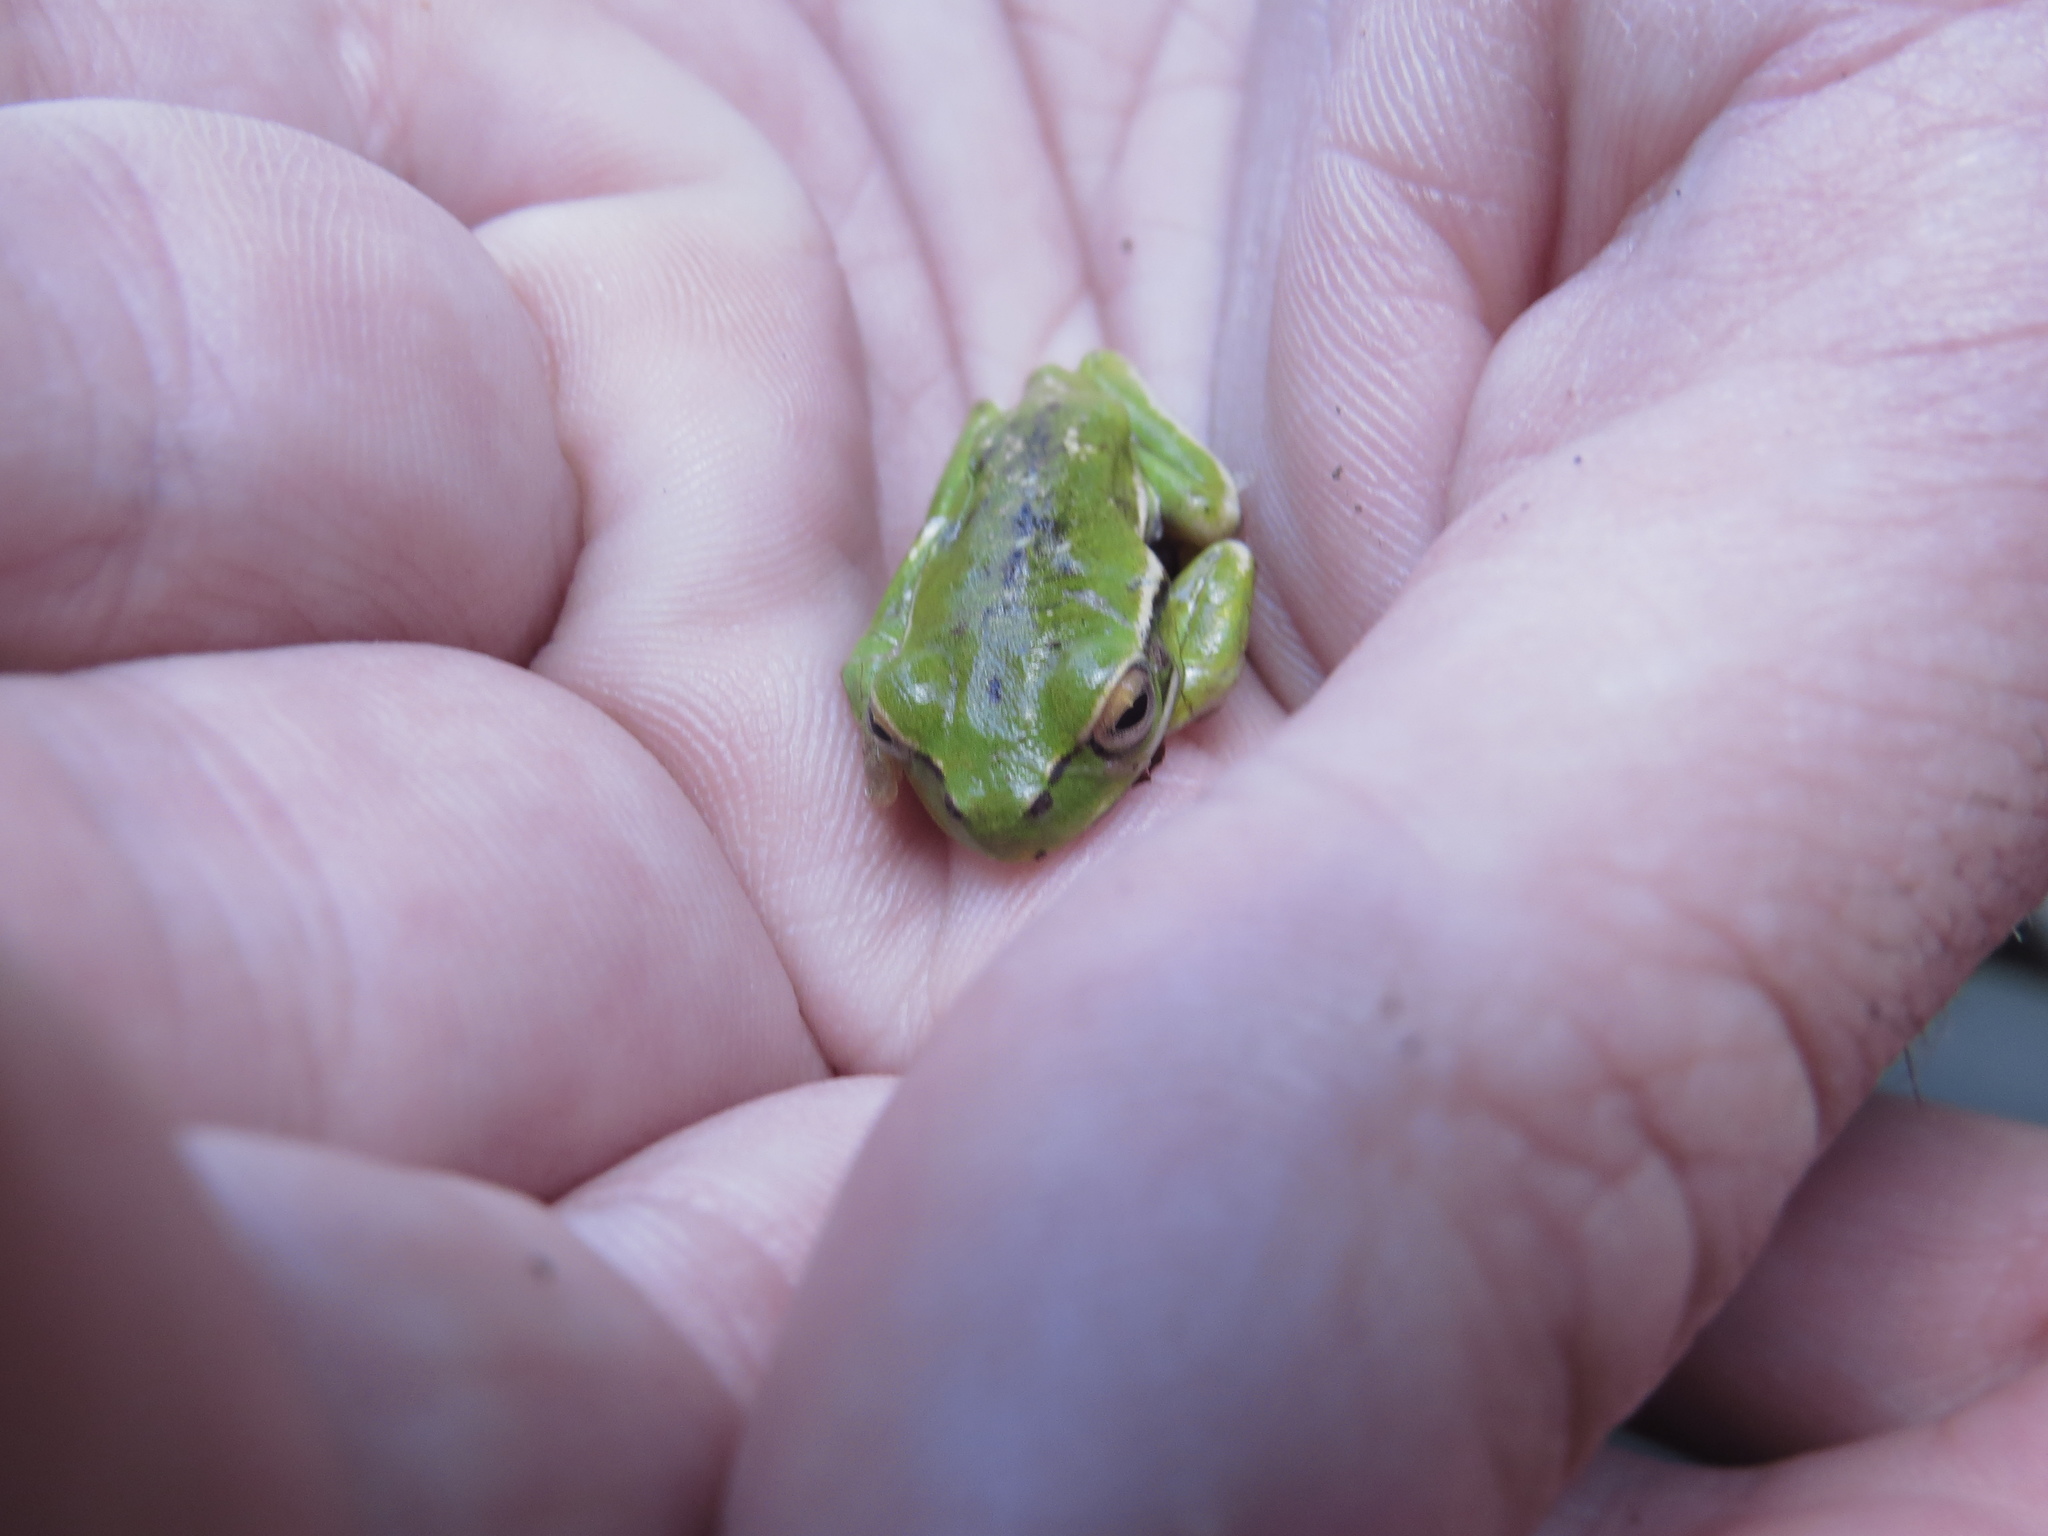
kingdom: Animalia
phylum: Chordata
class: Amphibia
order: Anura
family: Hylidae
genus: Boana
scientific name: Boana riojana
